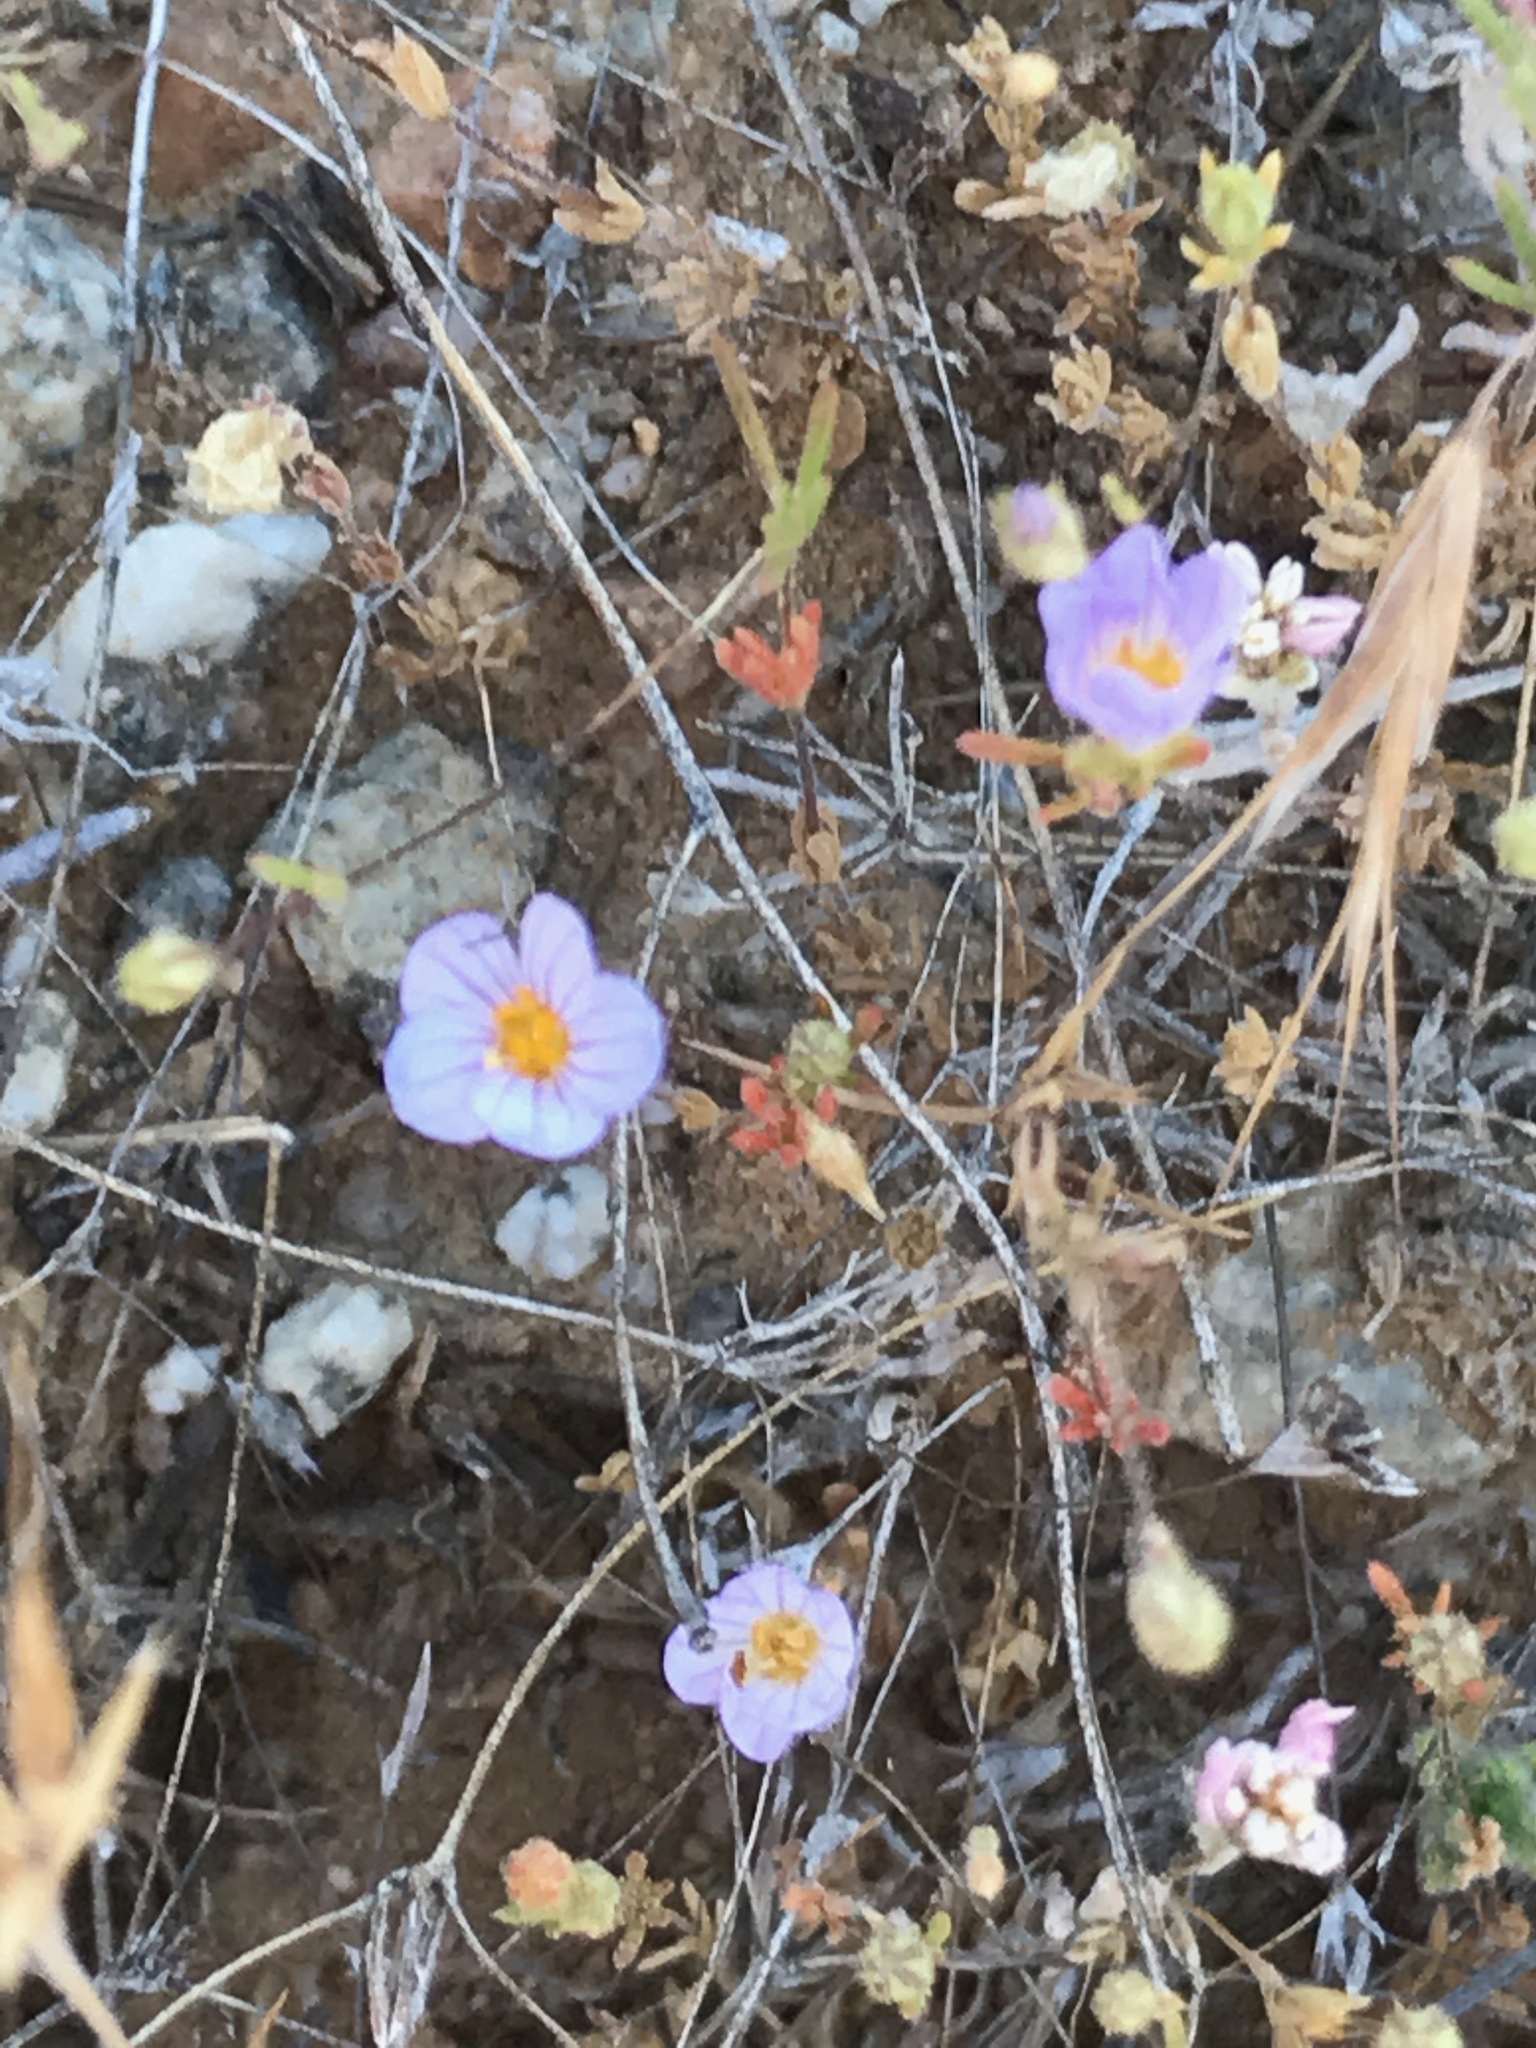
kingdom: Plantae
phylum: Tracheophyta
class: Magnoliopsida
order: Ericales
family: Polemoniaceae
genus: Leptosiphon
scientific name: Leptosiphon liniflorus
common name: Narrowflower flaxflower
